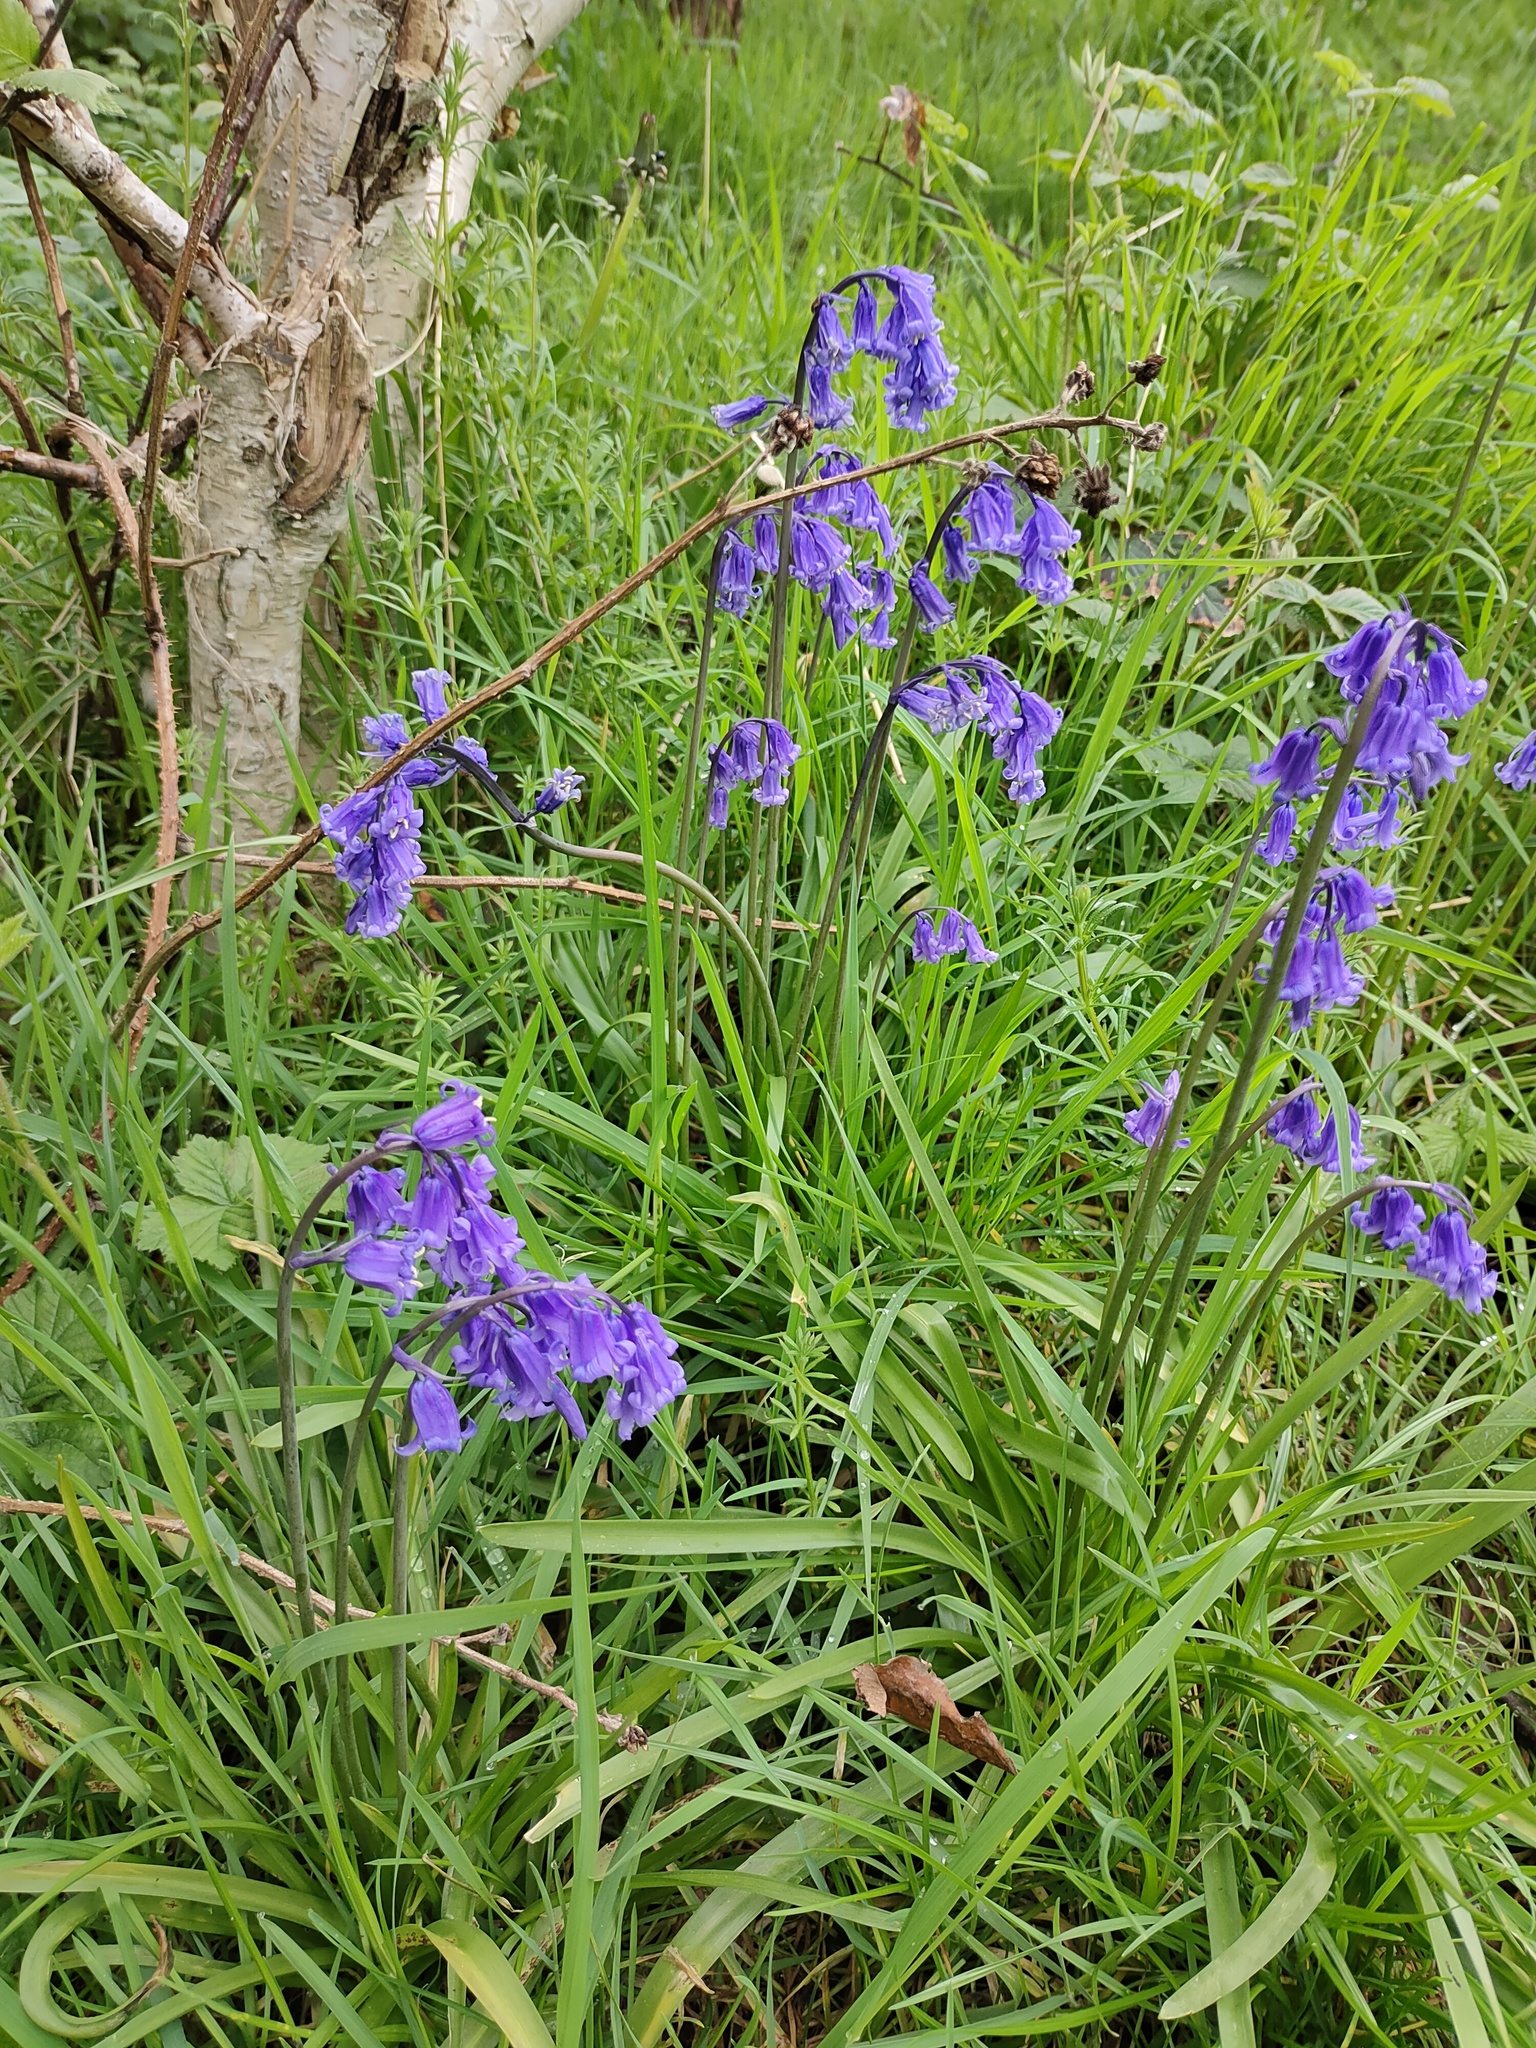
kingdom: Plantae
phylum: Tracheophyta
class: Liliopsida
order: Asparagales
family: Asparagaceae
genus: Hyacinthoides
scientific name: Hyacinthoides massartiana
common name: Hyacinthoides
